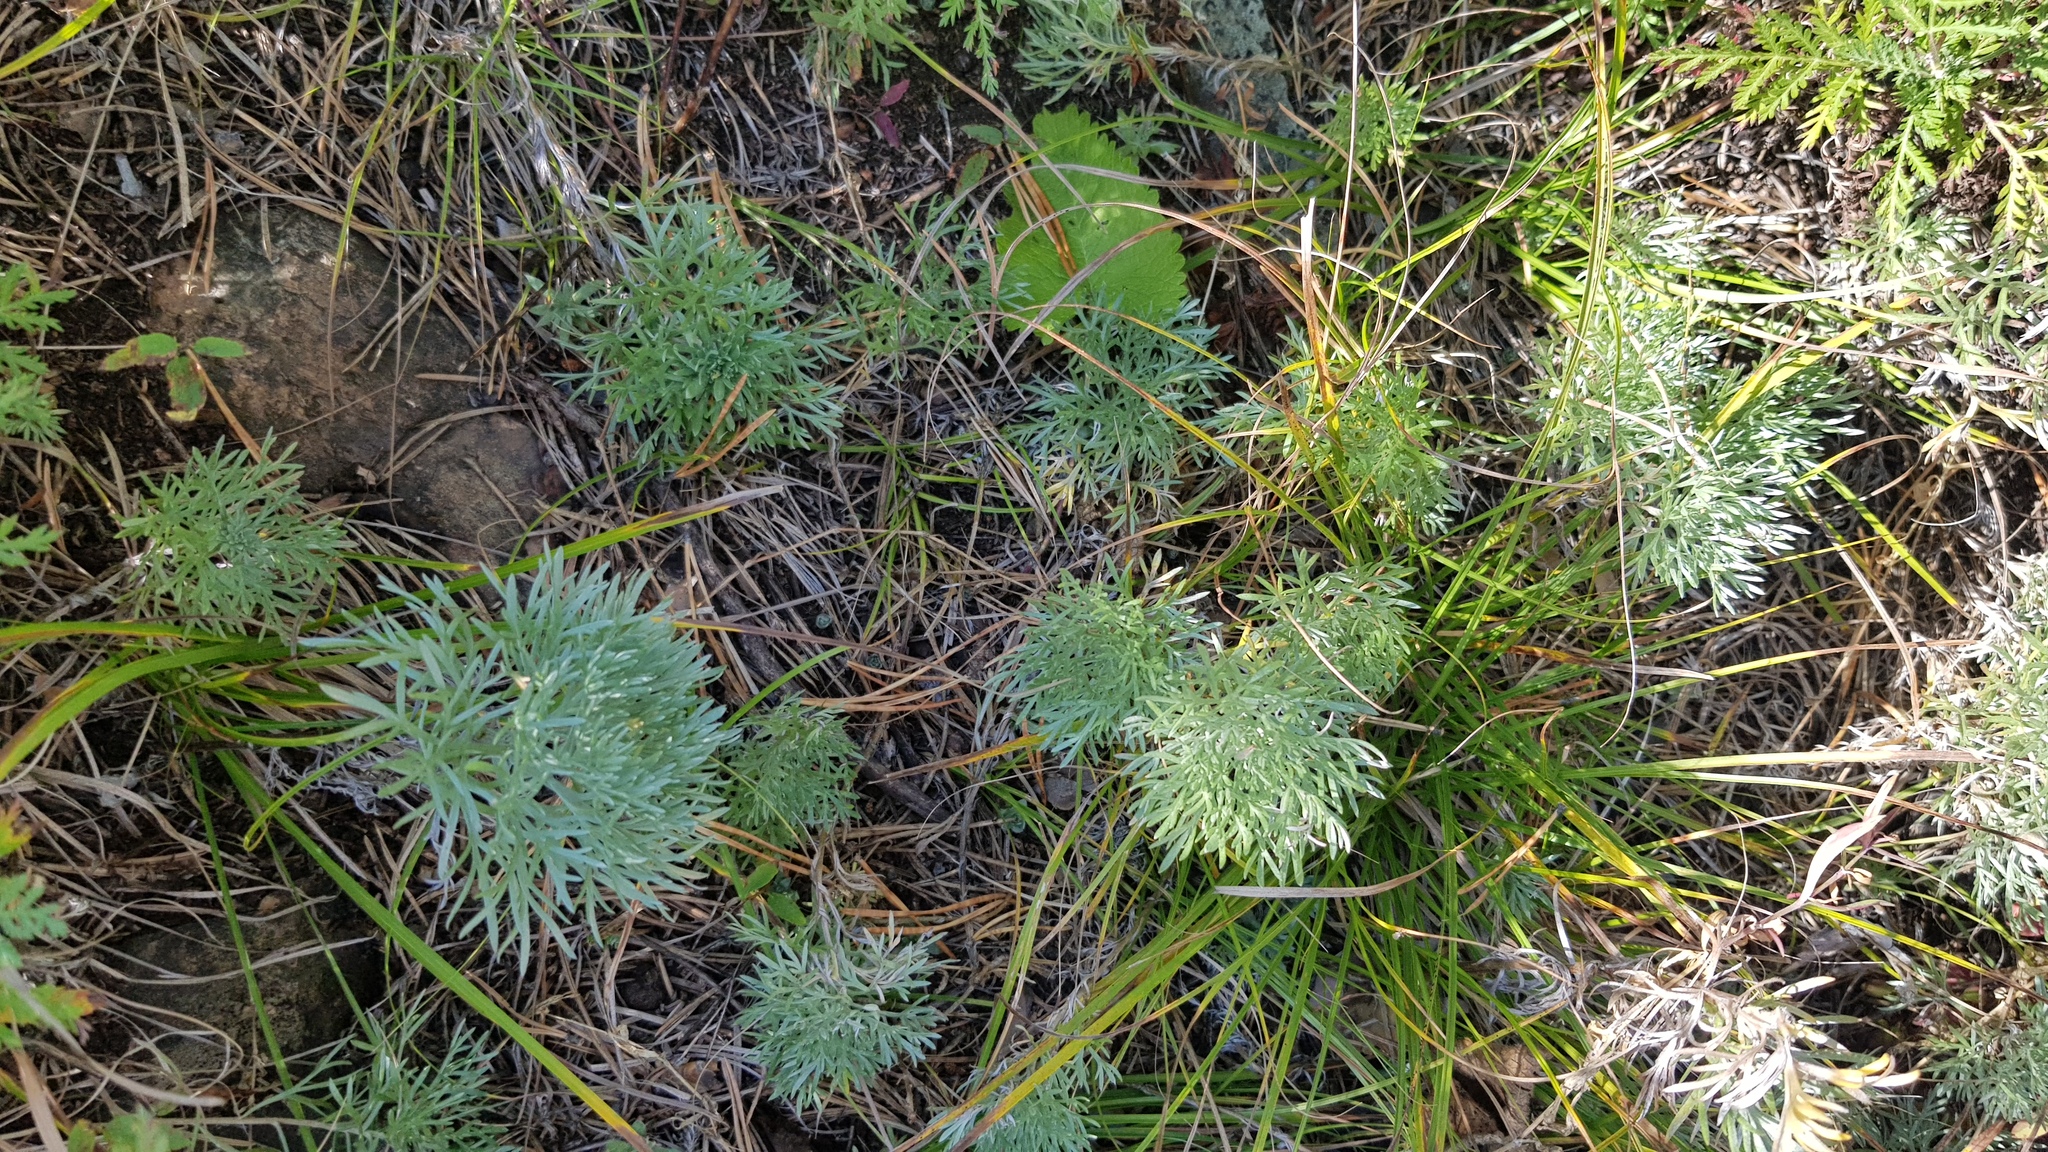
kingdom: Plantae
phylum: Tracheophyta
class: Magnoliopsida
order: Asterales
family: Asteraceae
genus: Artemisia
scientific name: Artemisia sericea
